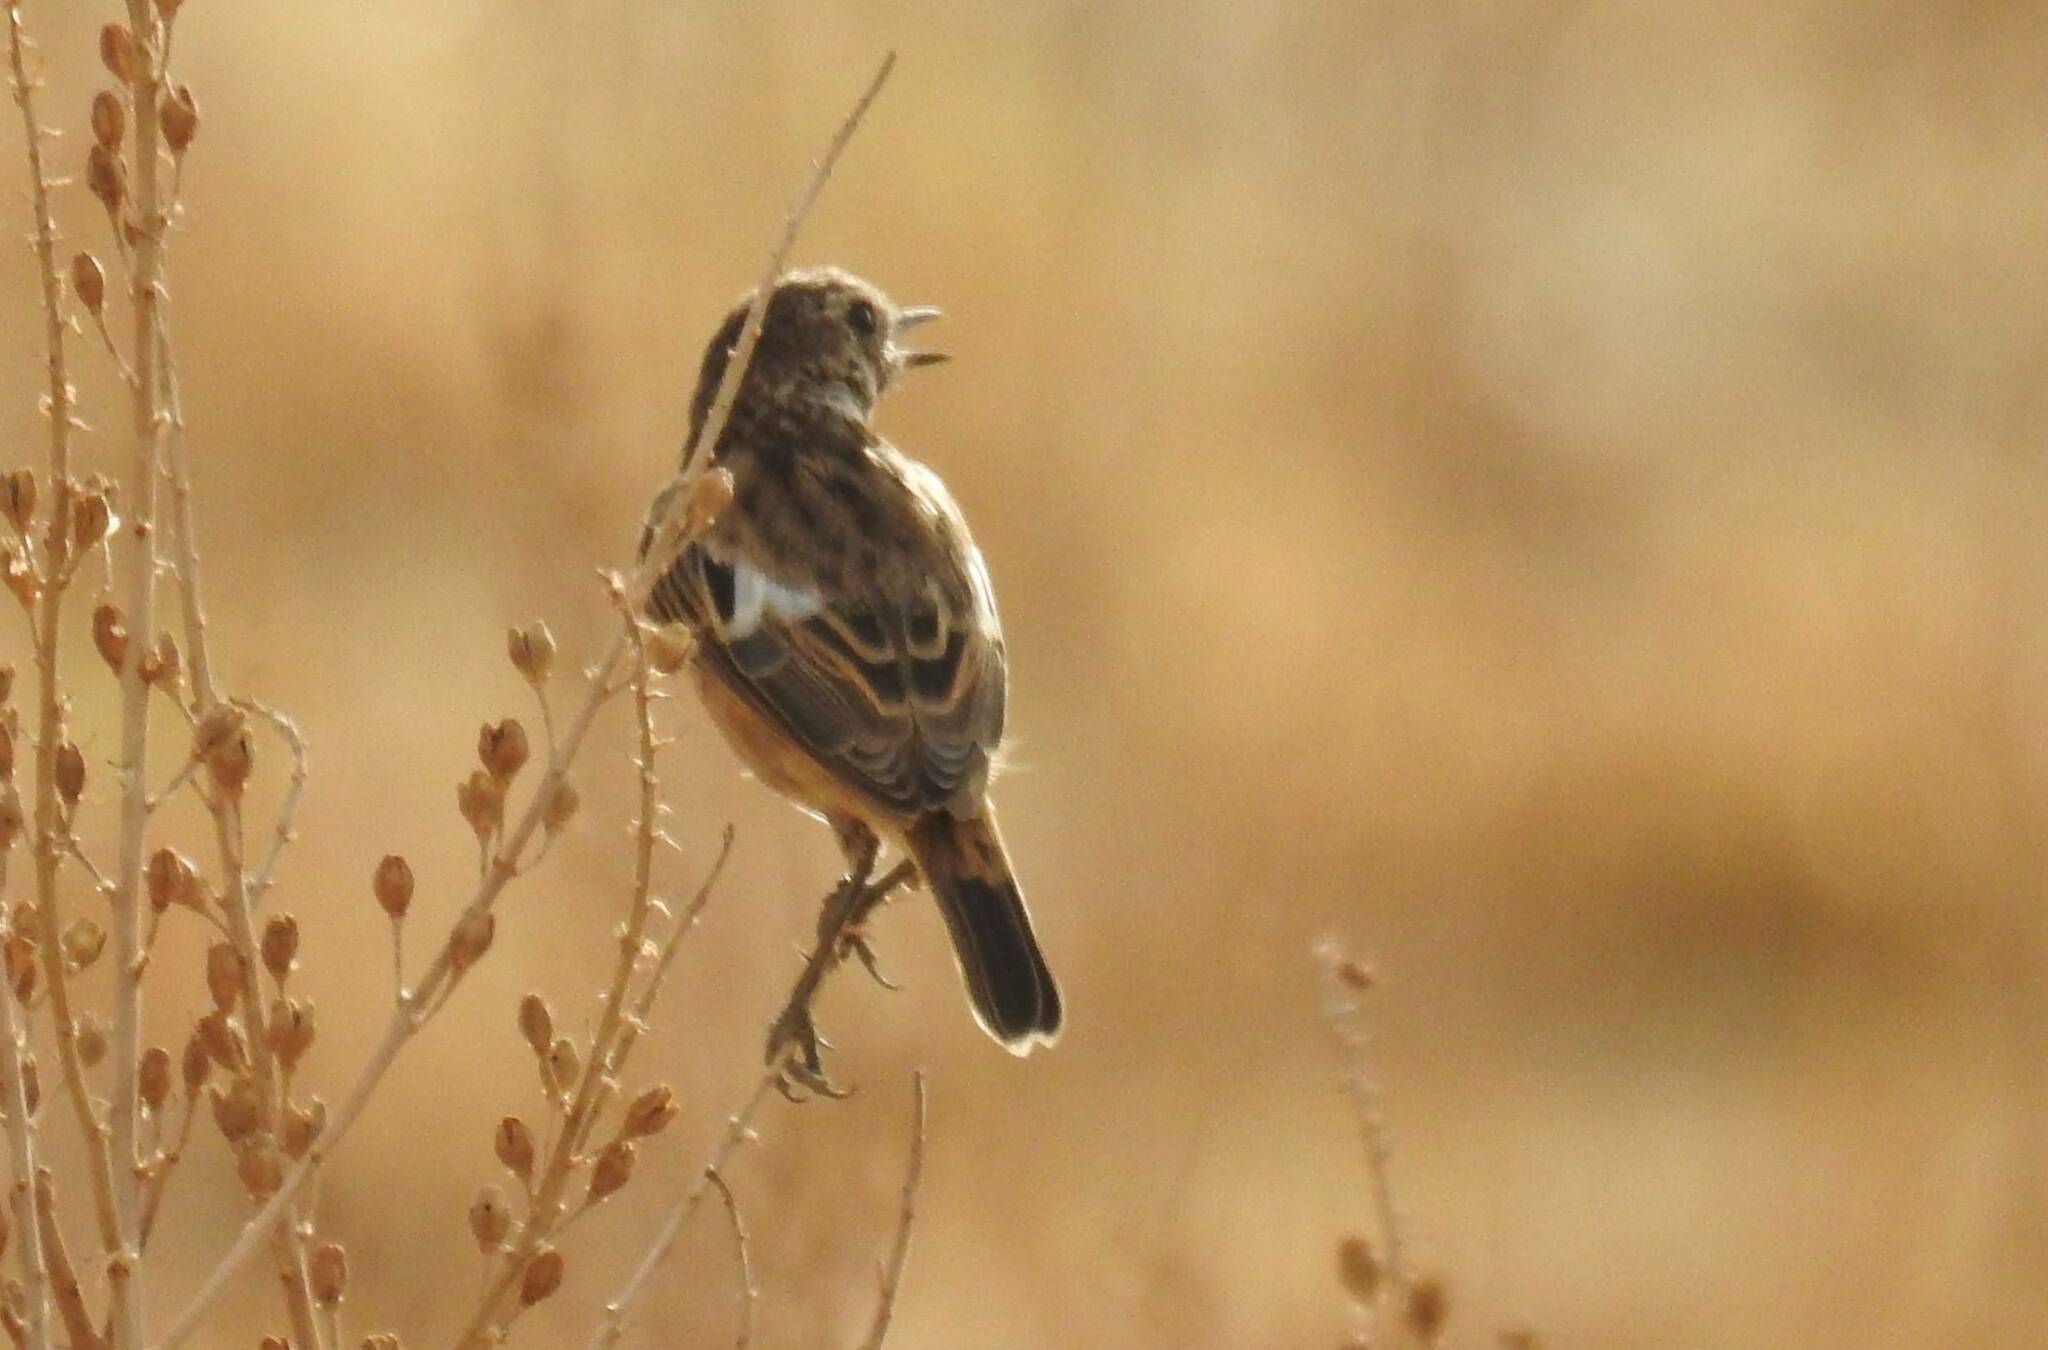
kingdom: Animalia
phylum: Chordata
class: Aves
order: Passeriformes
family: Muscicapidae
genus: Saxicola
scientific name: Saxicola rubicola
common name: European stonechat
